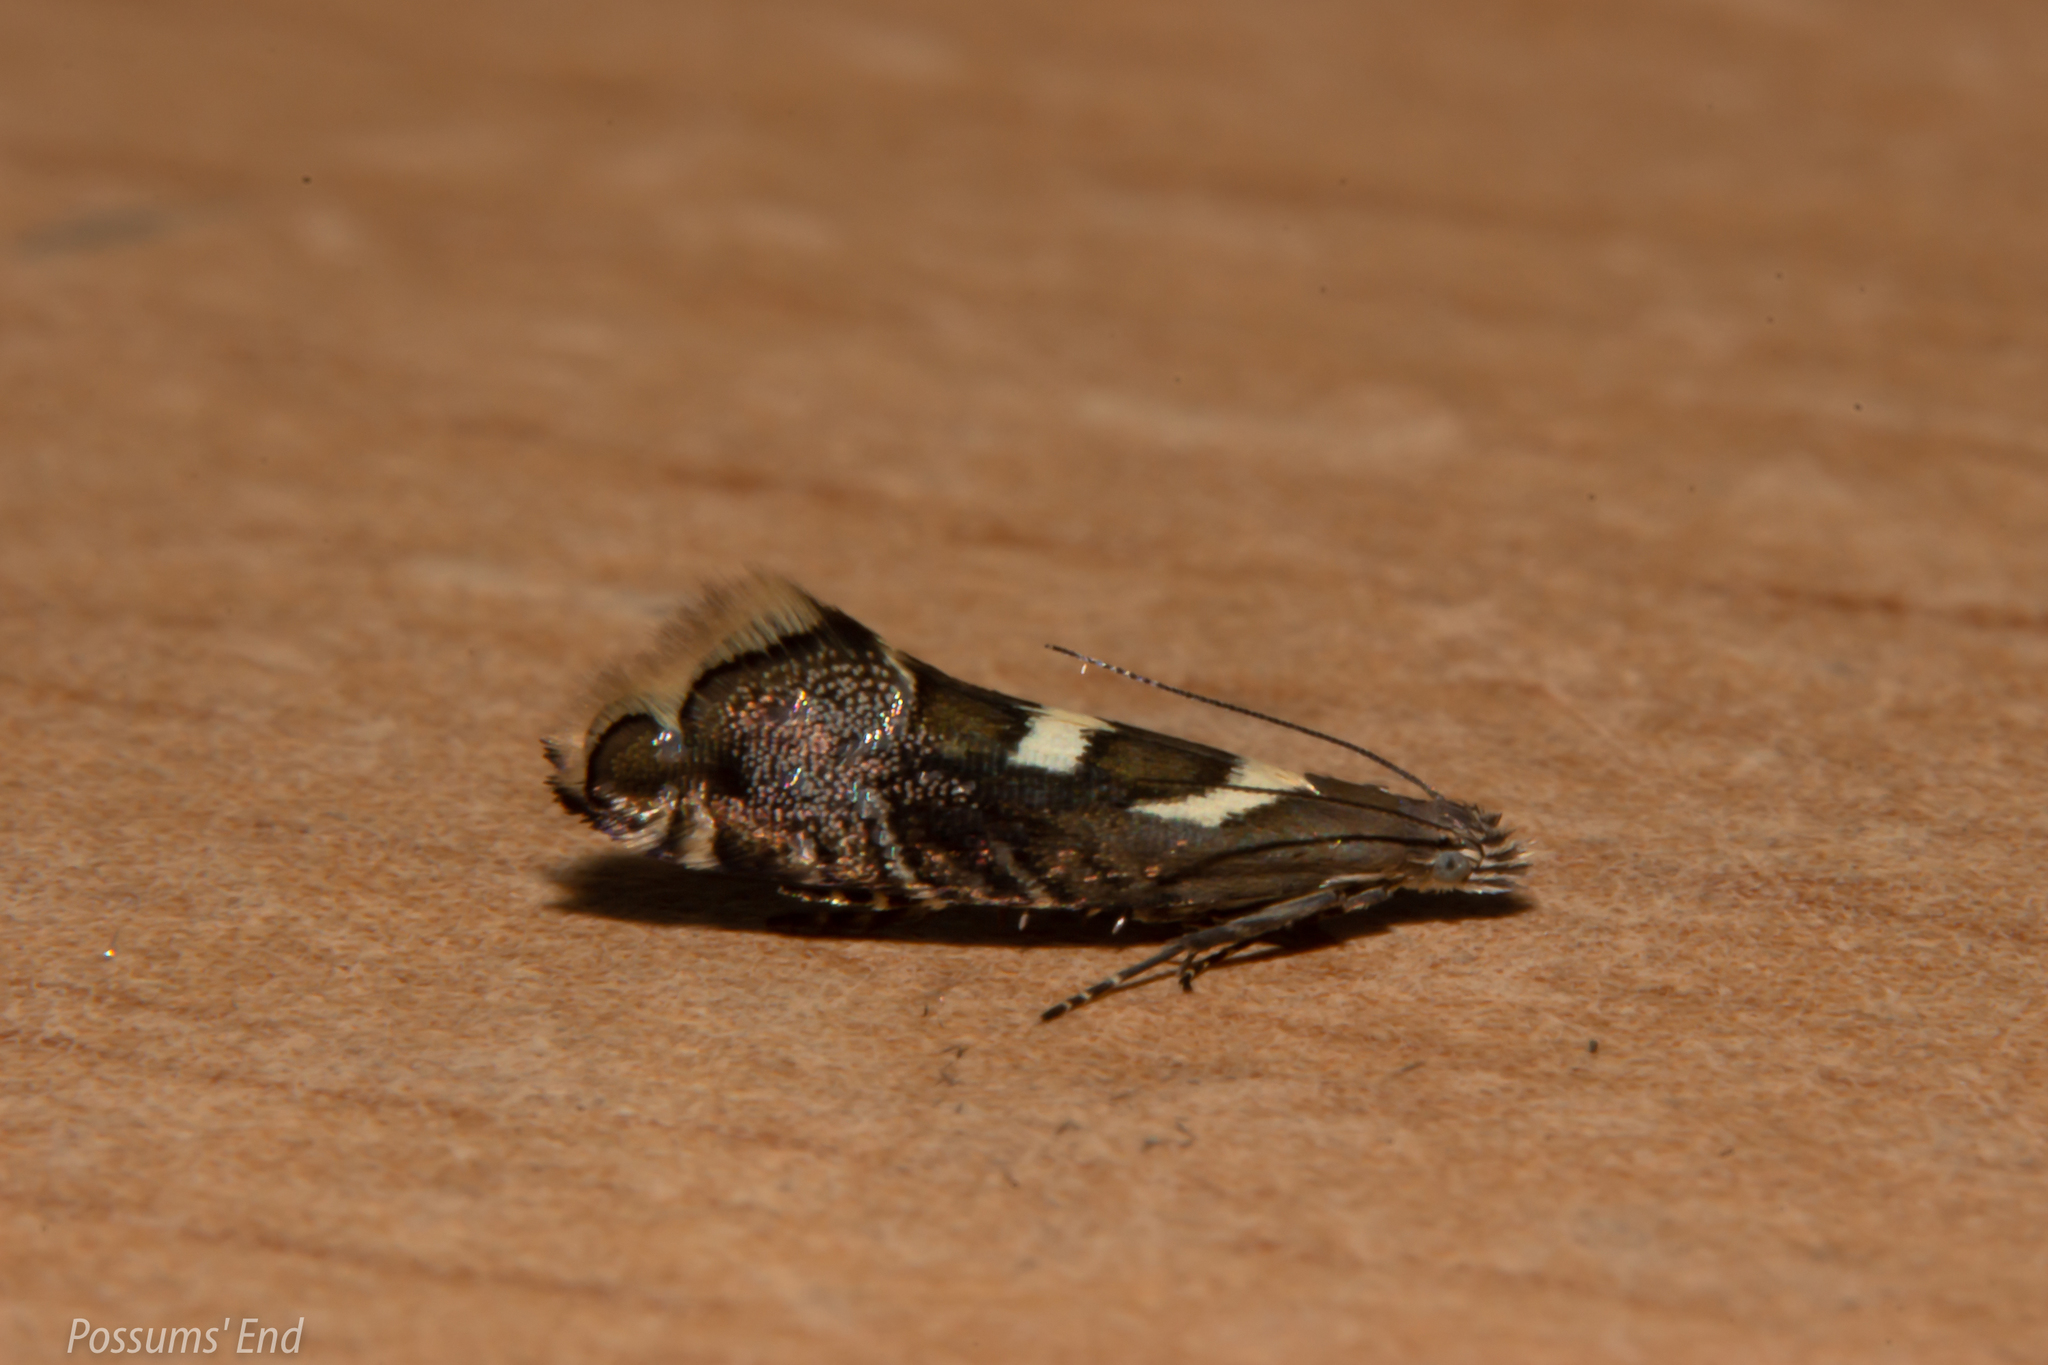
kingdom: Animalia
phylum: Arthropoda
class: Insecta
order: Lepidoptera
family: Glyphipterigidae
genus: Glyphipterix
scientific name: Glyphipterix asteronota
